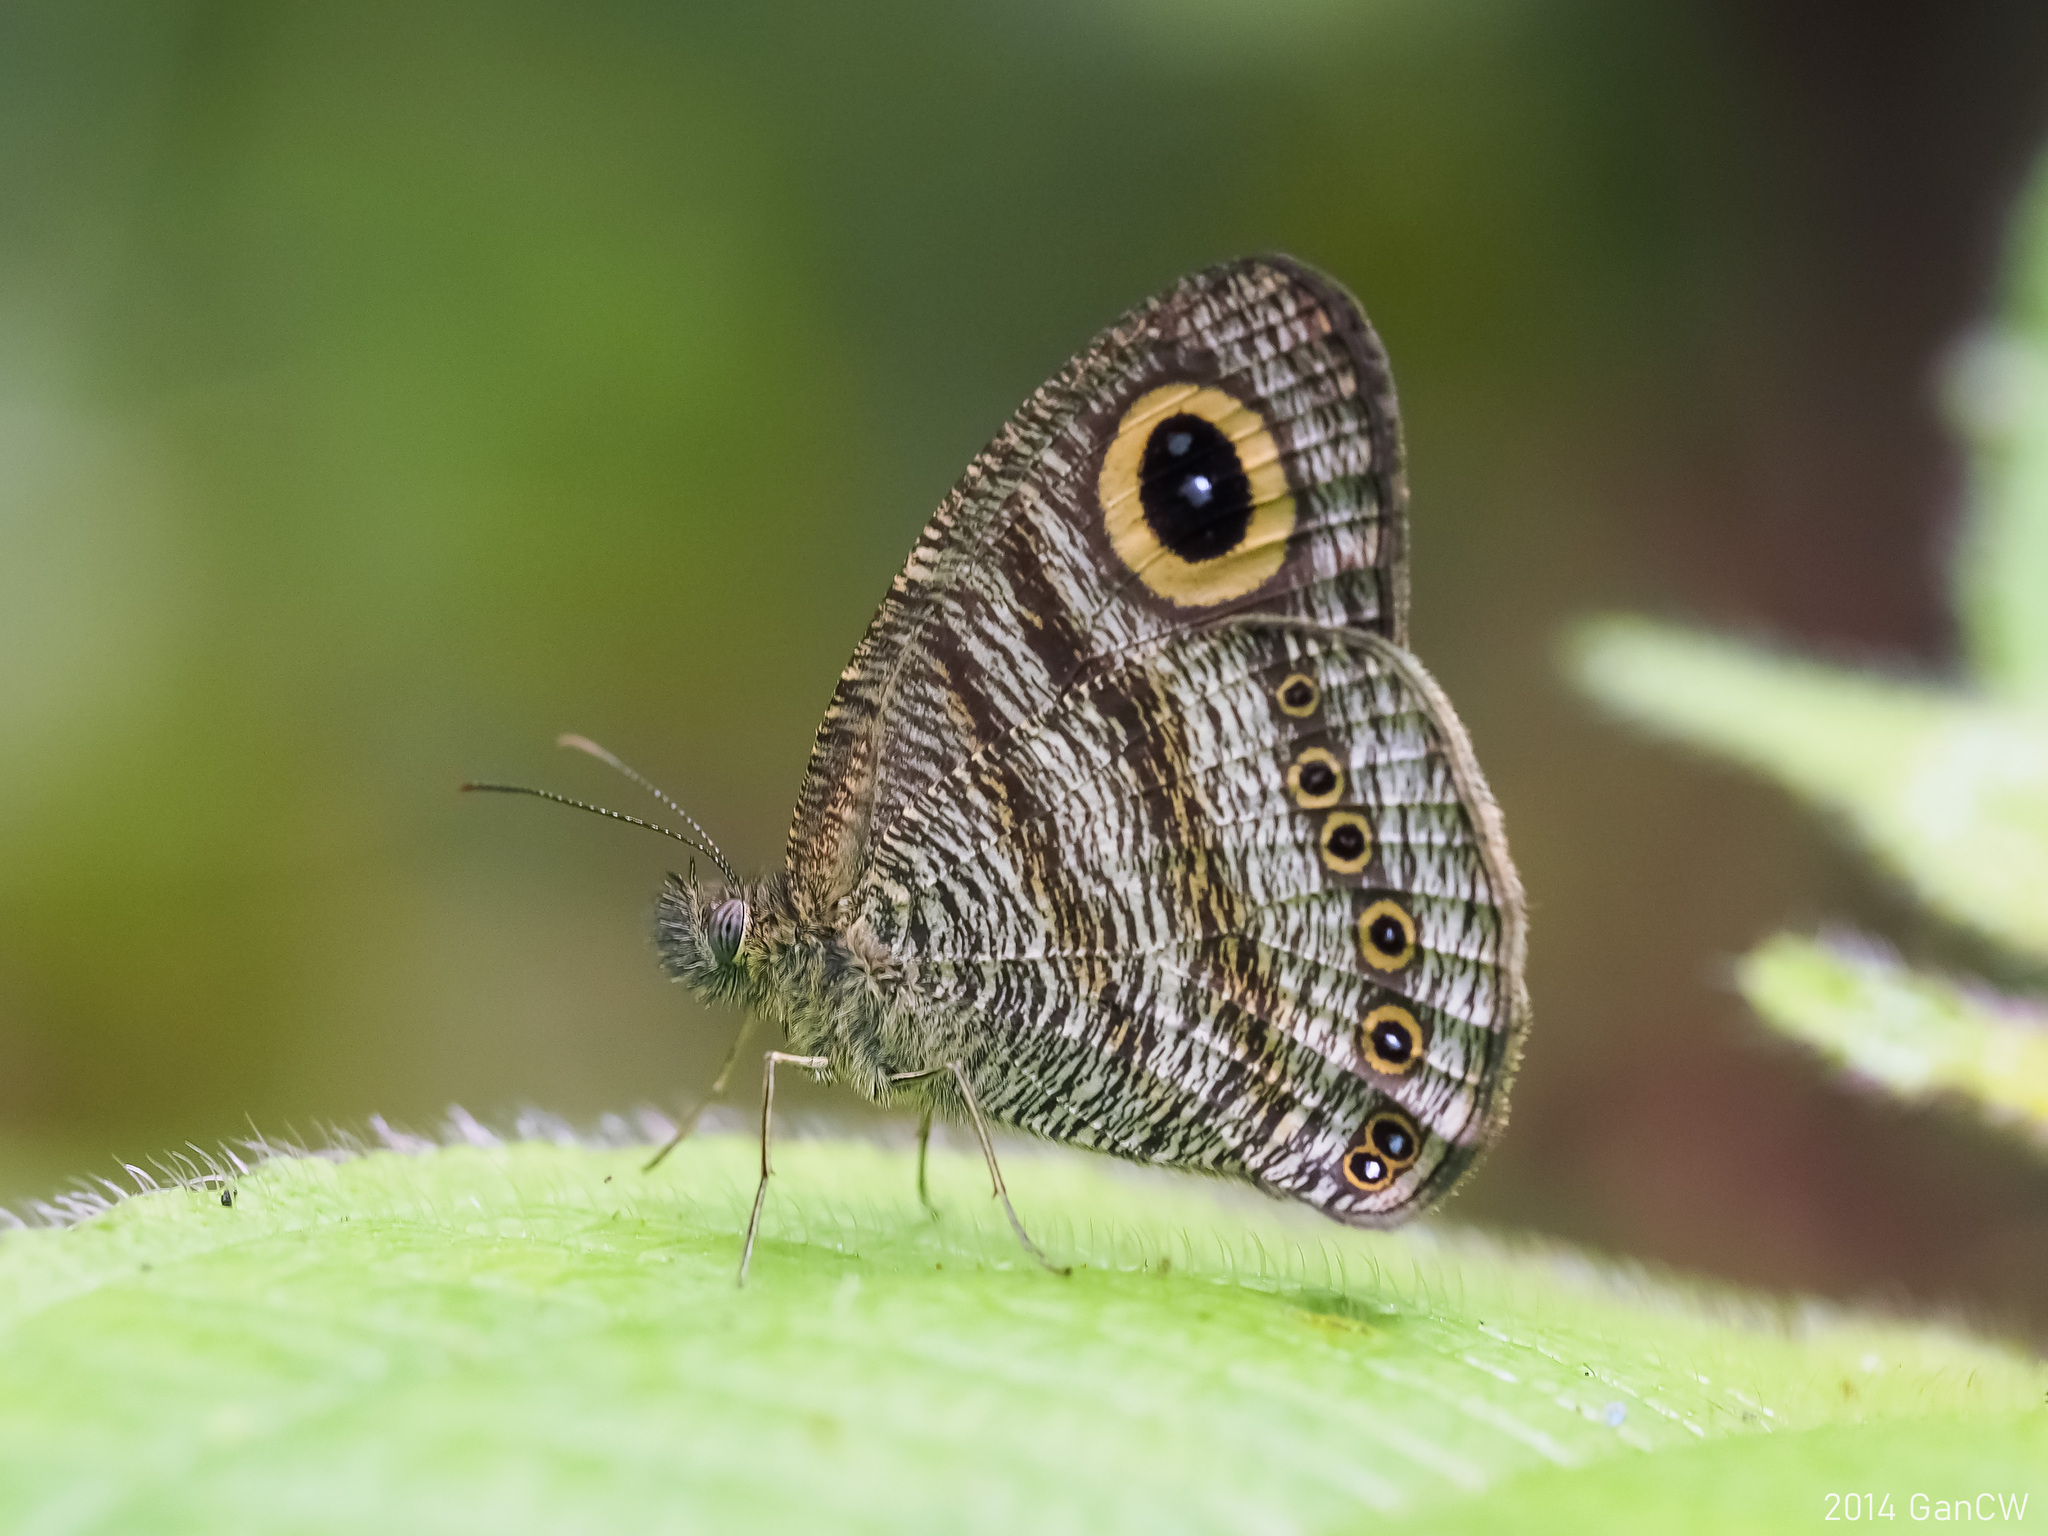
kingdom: Animalia
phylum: Arthropoda
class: Insecta
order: Lepidoptera
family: Nymphalidae
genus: Ypthima
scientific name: Ypthima fasciata
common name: Malayan six-ring
